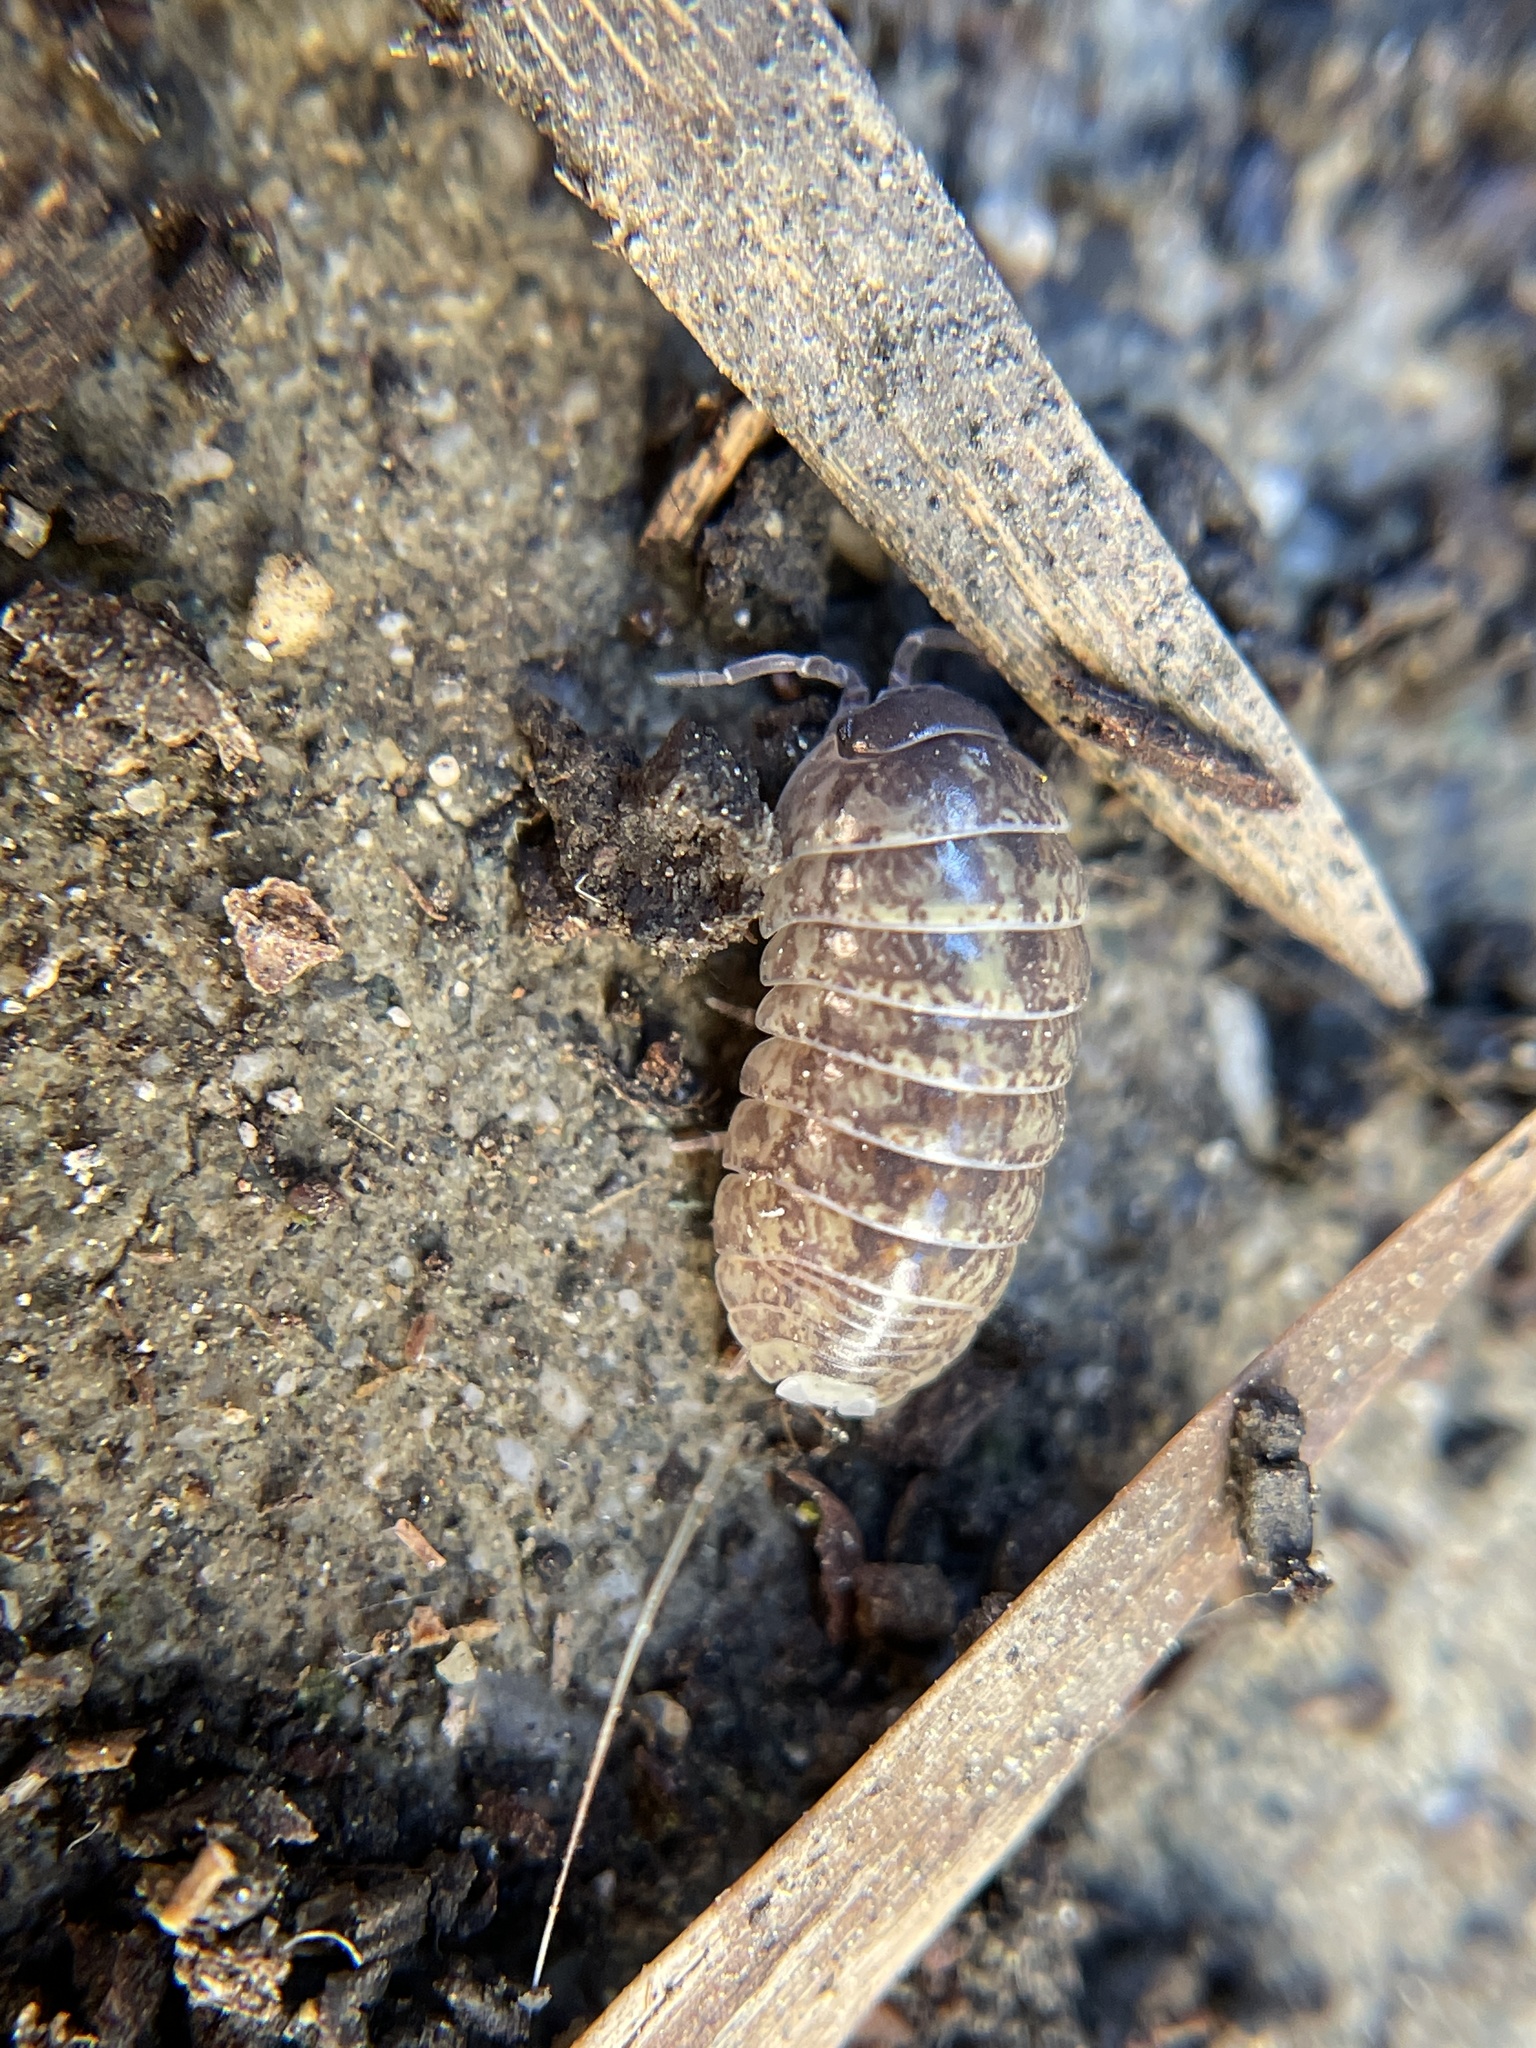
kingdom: Animalia
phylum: Arthropoda
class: Malacostraca
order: Isopoda
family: Armadillidiidae
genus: Armadillidium
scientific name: Armadillidium vulgare
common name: Common pill woodlouse
